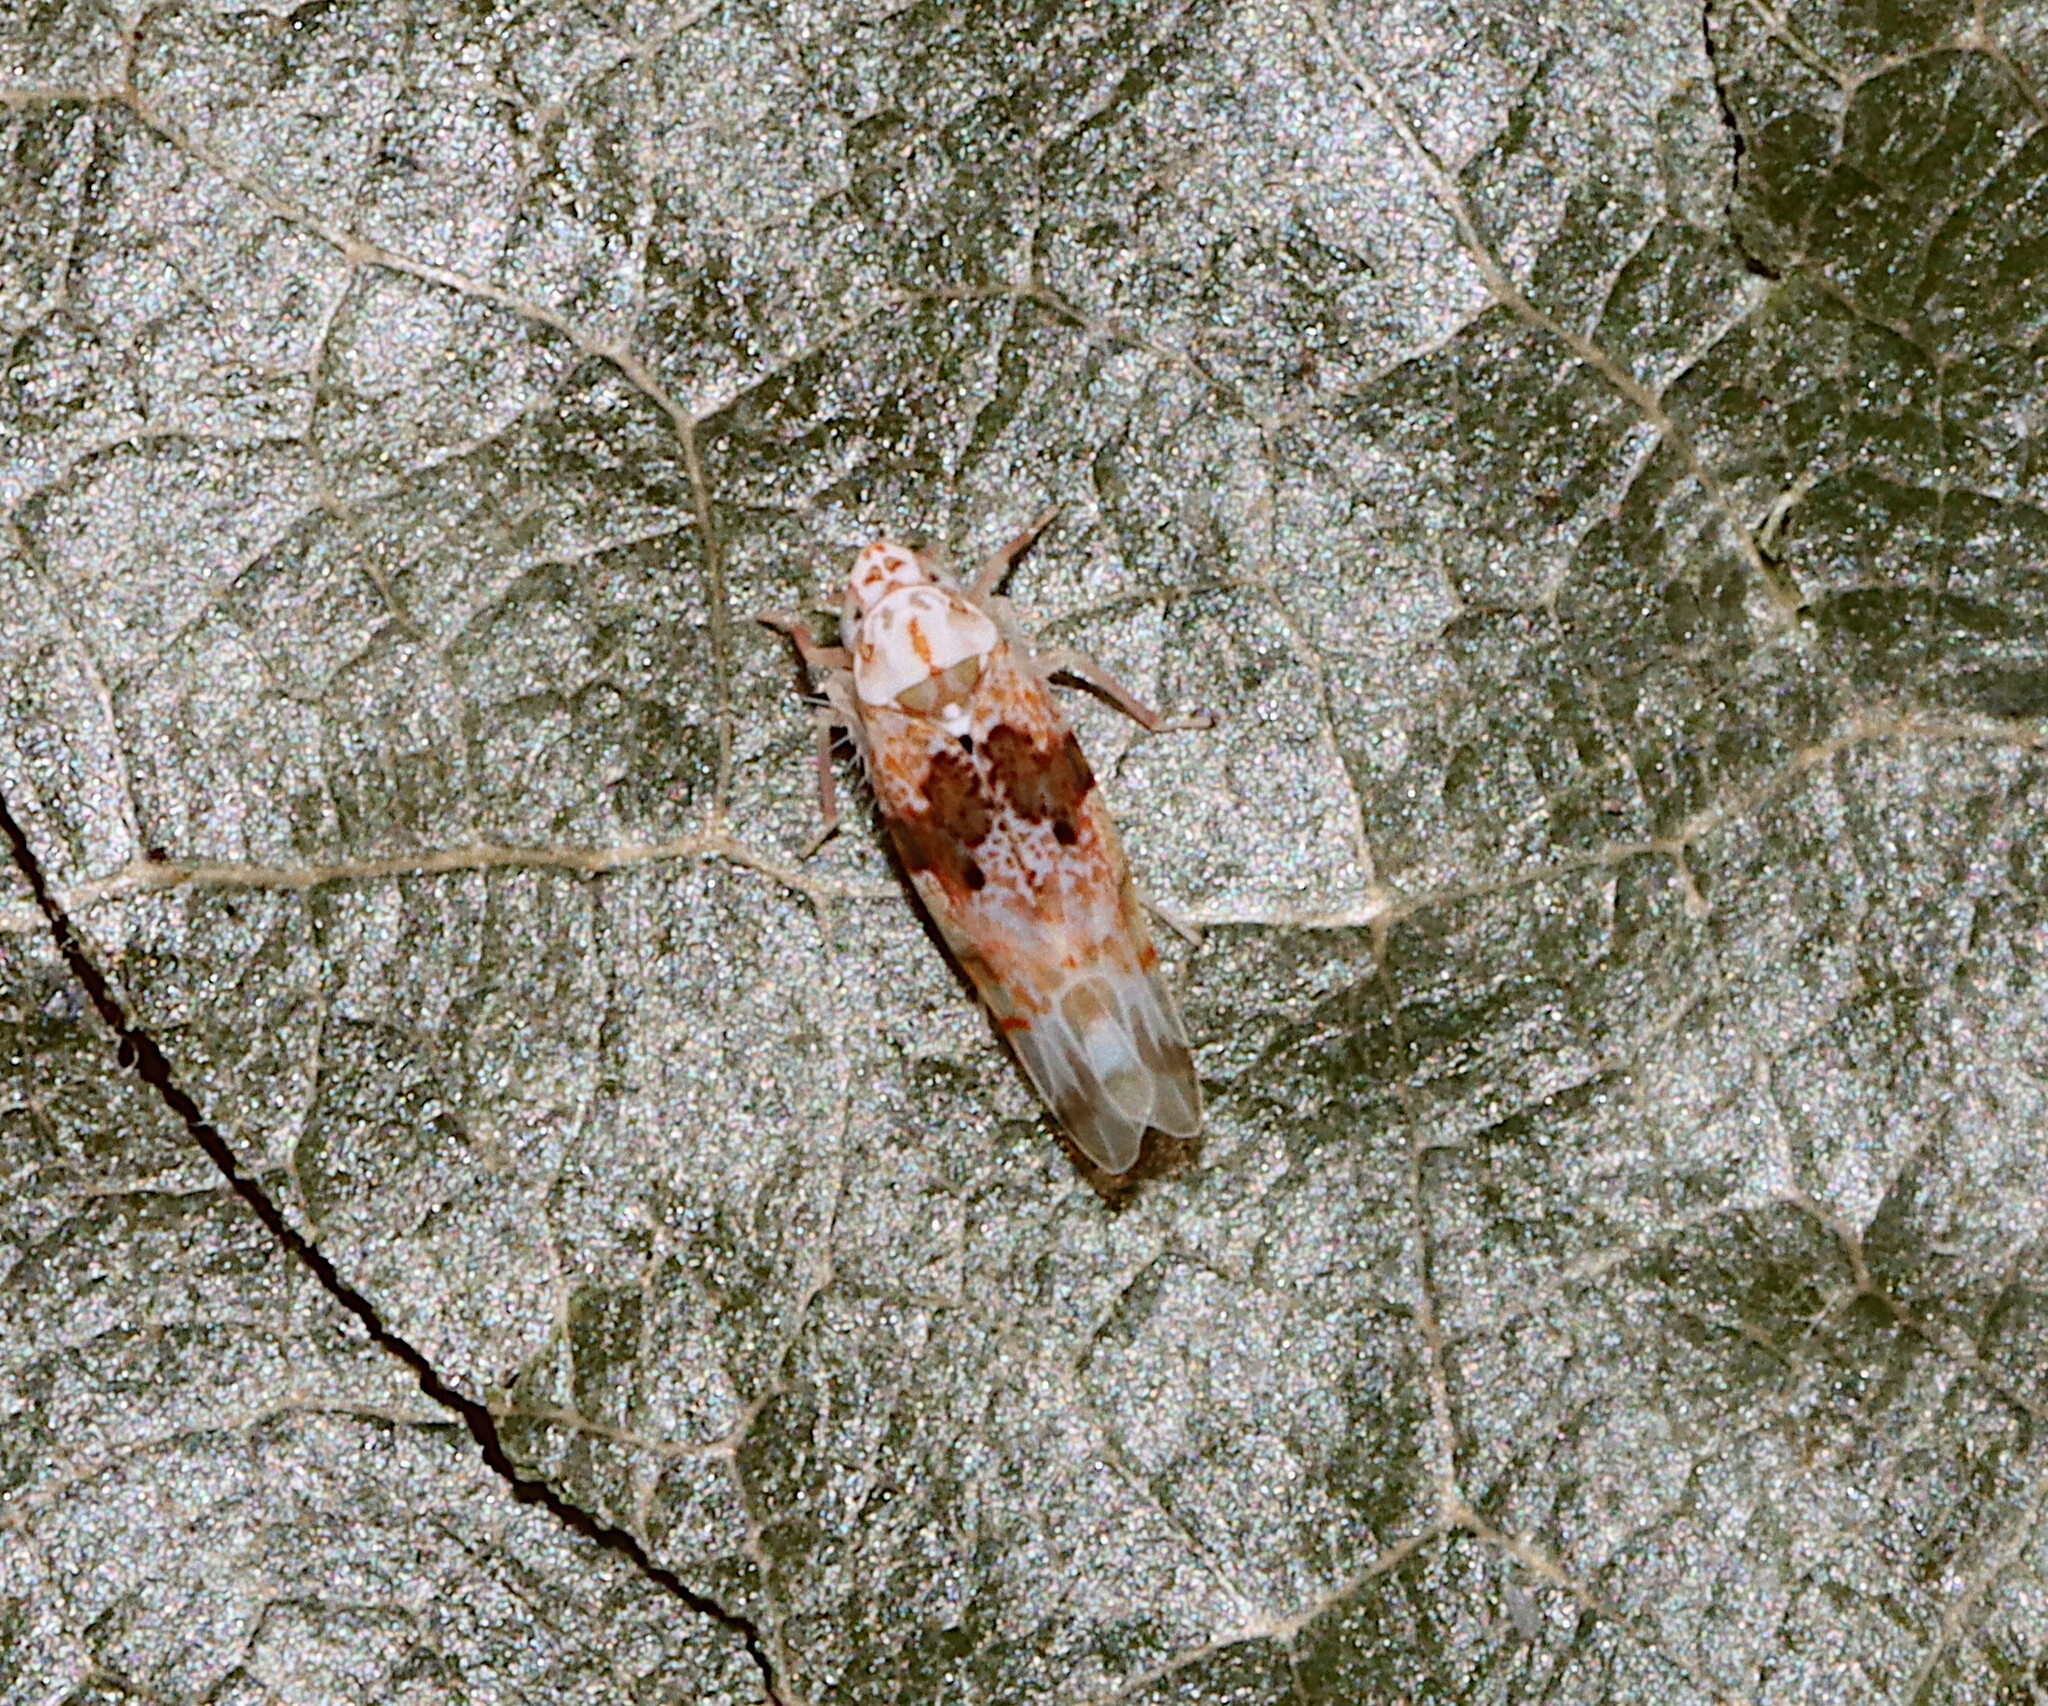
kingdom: Animalia
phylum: Arthropoda
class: Insecta
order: Hemiptera
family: Cicadellidae
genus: Hymetta
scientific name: Hymetta anthisma
